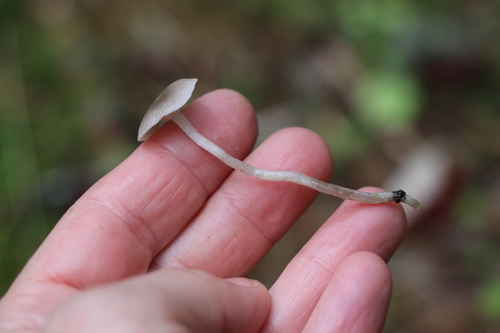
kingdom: Fungi
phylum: Basidiomycota
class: Agaricomycetes
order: Agaricales
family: Tricholomataceae
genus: Clitocybe
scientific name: Clitocybe
